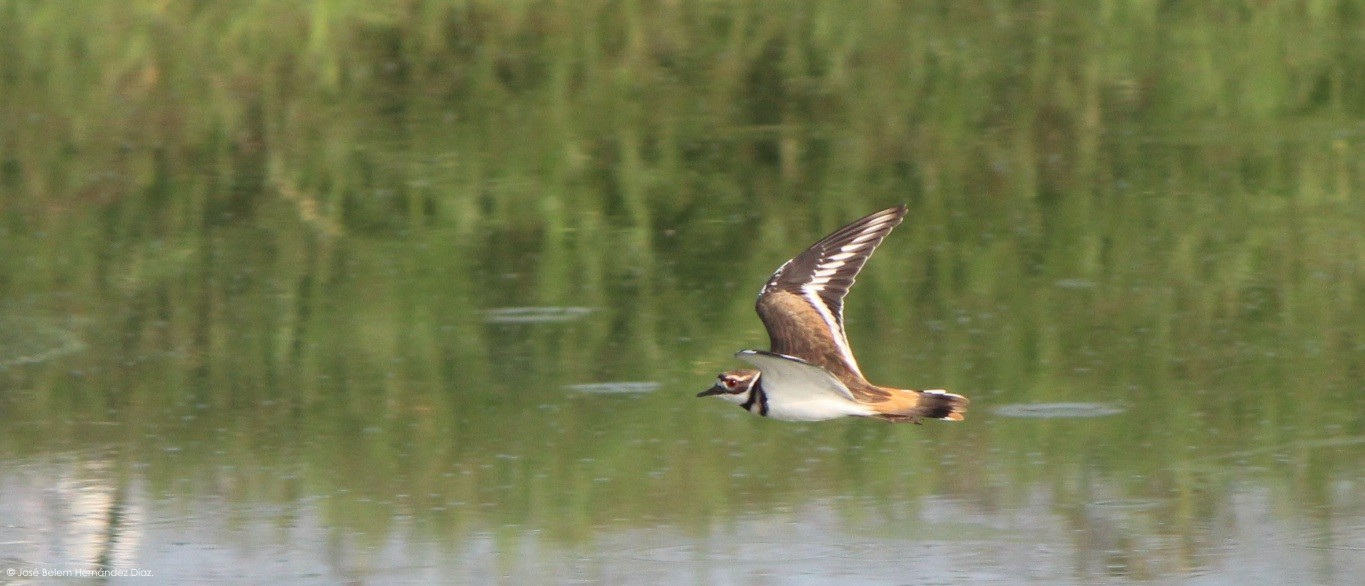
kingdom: Animalia
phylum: Chordata
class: Aves
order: Charadriiformes
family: Charadriidae
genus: Charadrius
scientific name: Charadrius vociferus
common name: Killdeer
